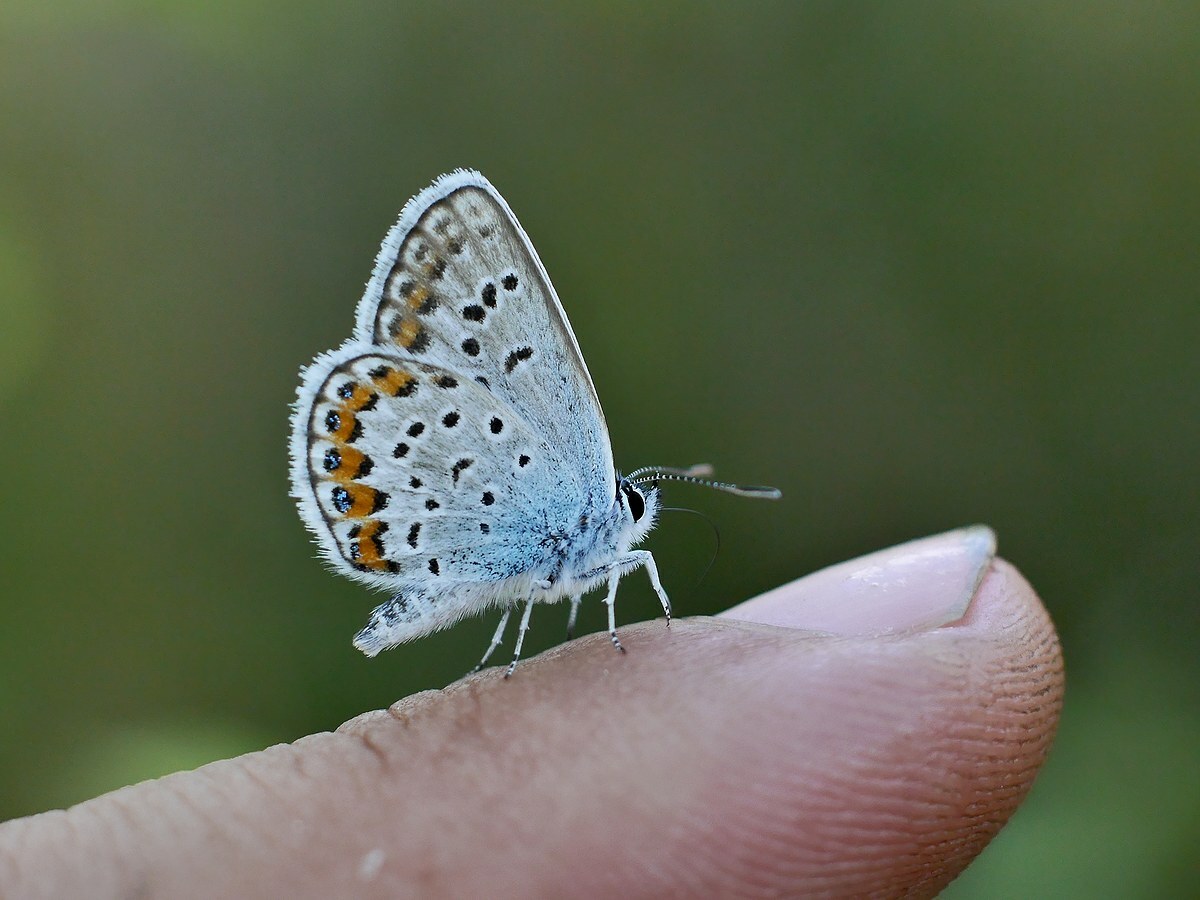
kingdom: Animalia
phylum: Arthropoda
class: Insecta
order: Lepidoptera
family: Lycaenidae
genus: Plebejus
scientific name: Plebejus argus
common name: Silver-studded blue
